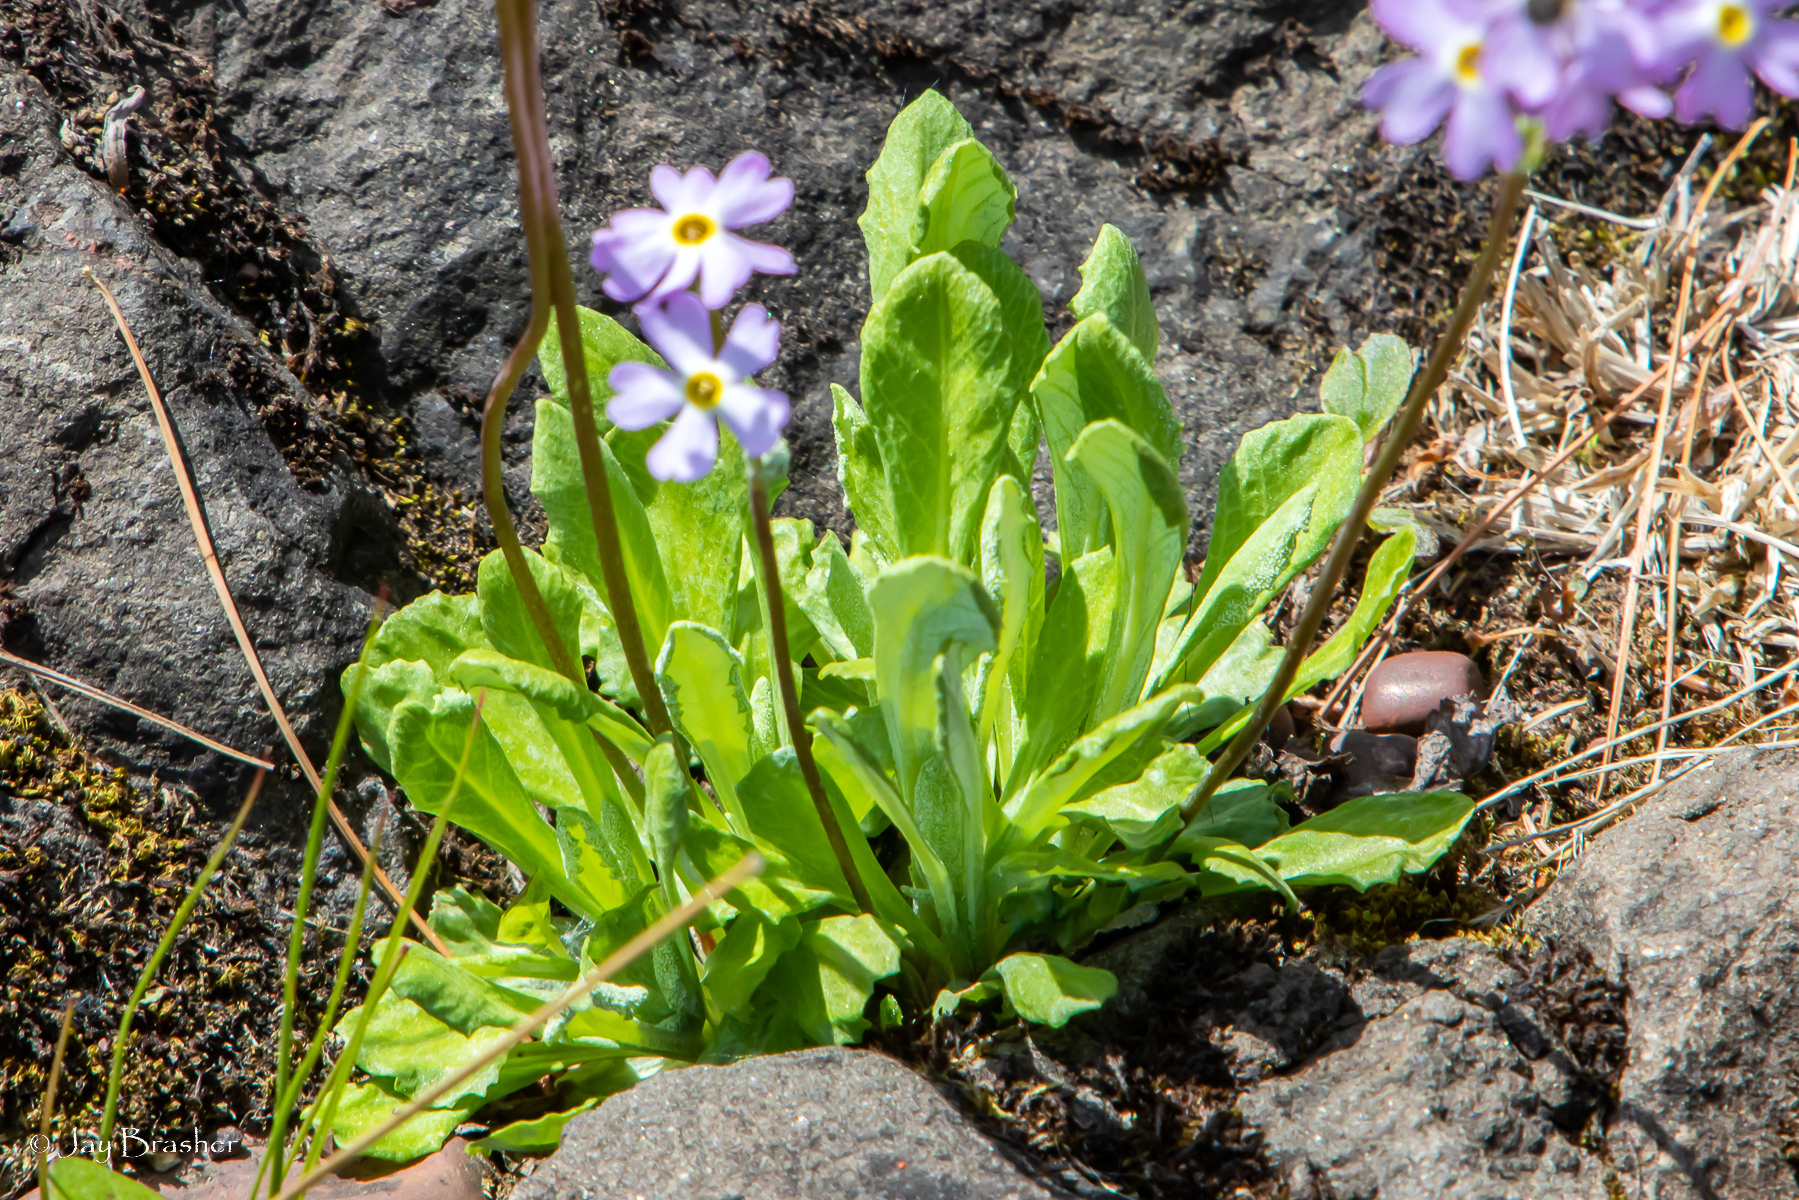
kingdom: Plantae
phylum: Tracheophyta
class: Magnoliopsida
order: Ericales
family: Primulaceae
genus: Primula
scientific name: Primula mistassinica
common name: Bird's-eye primrose
